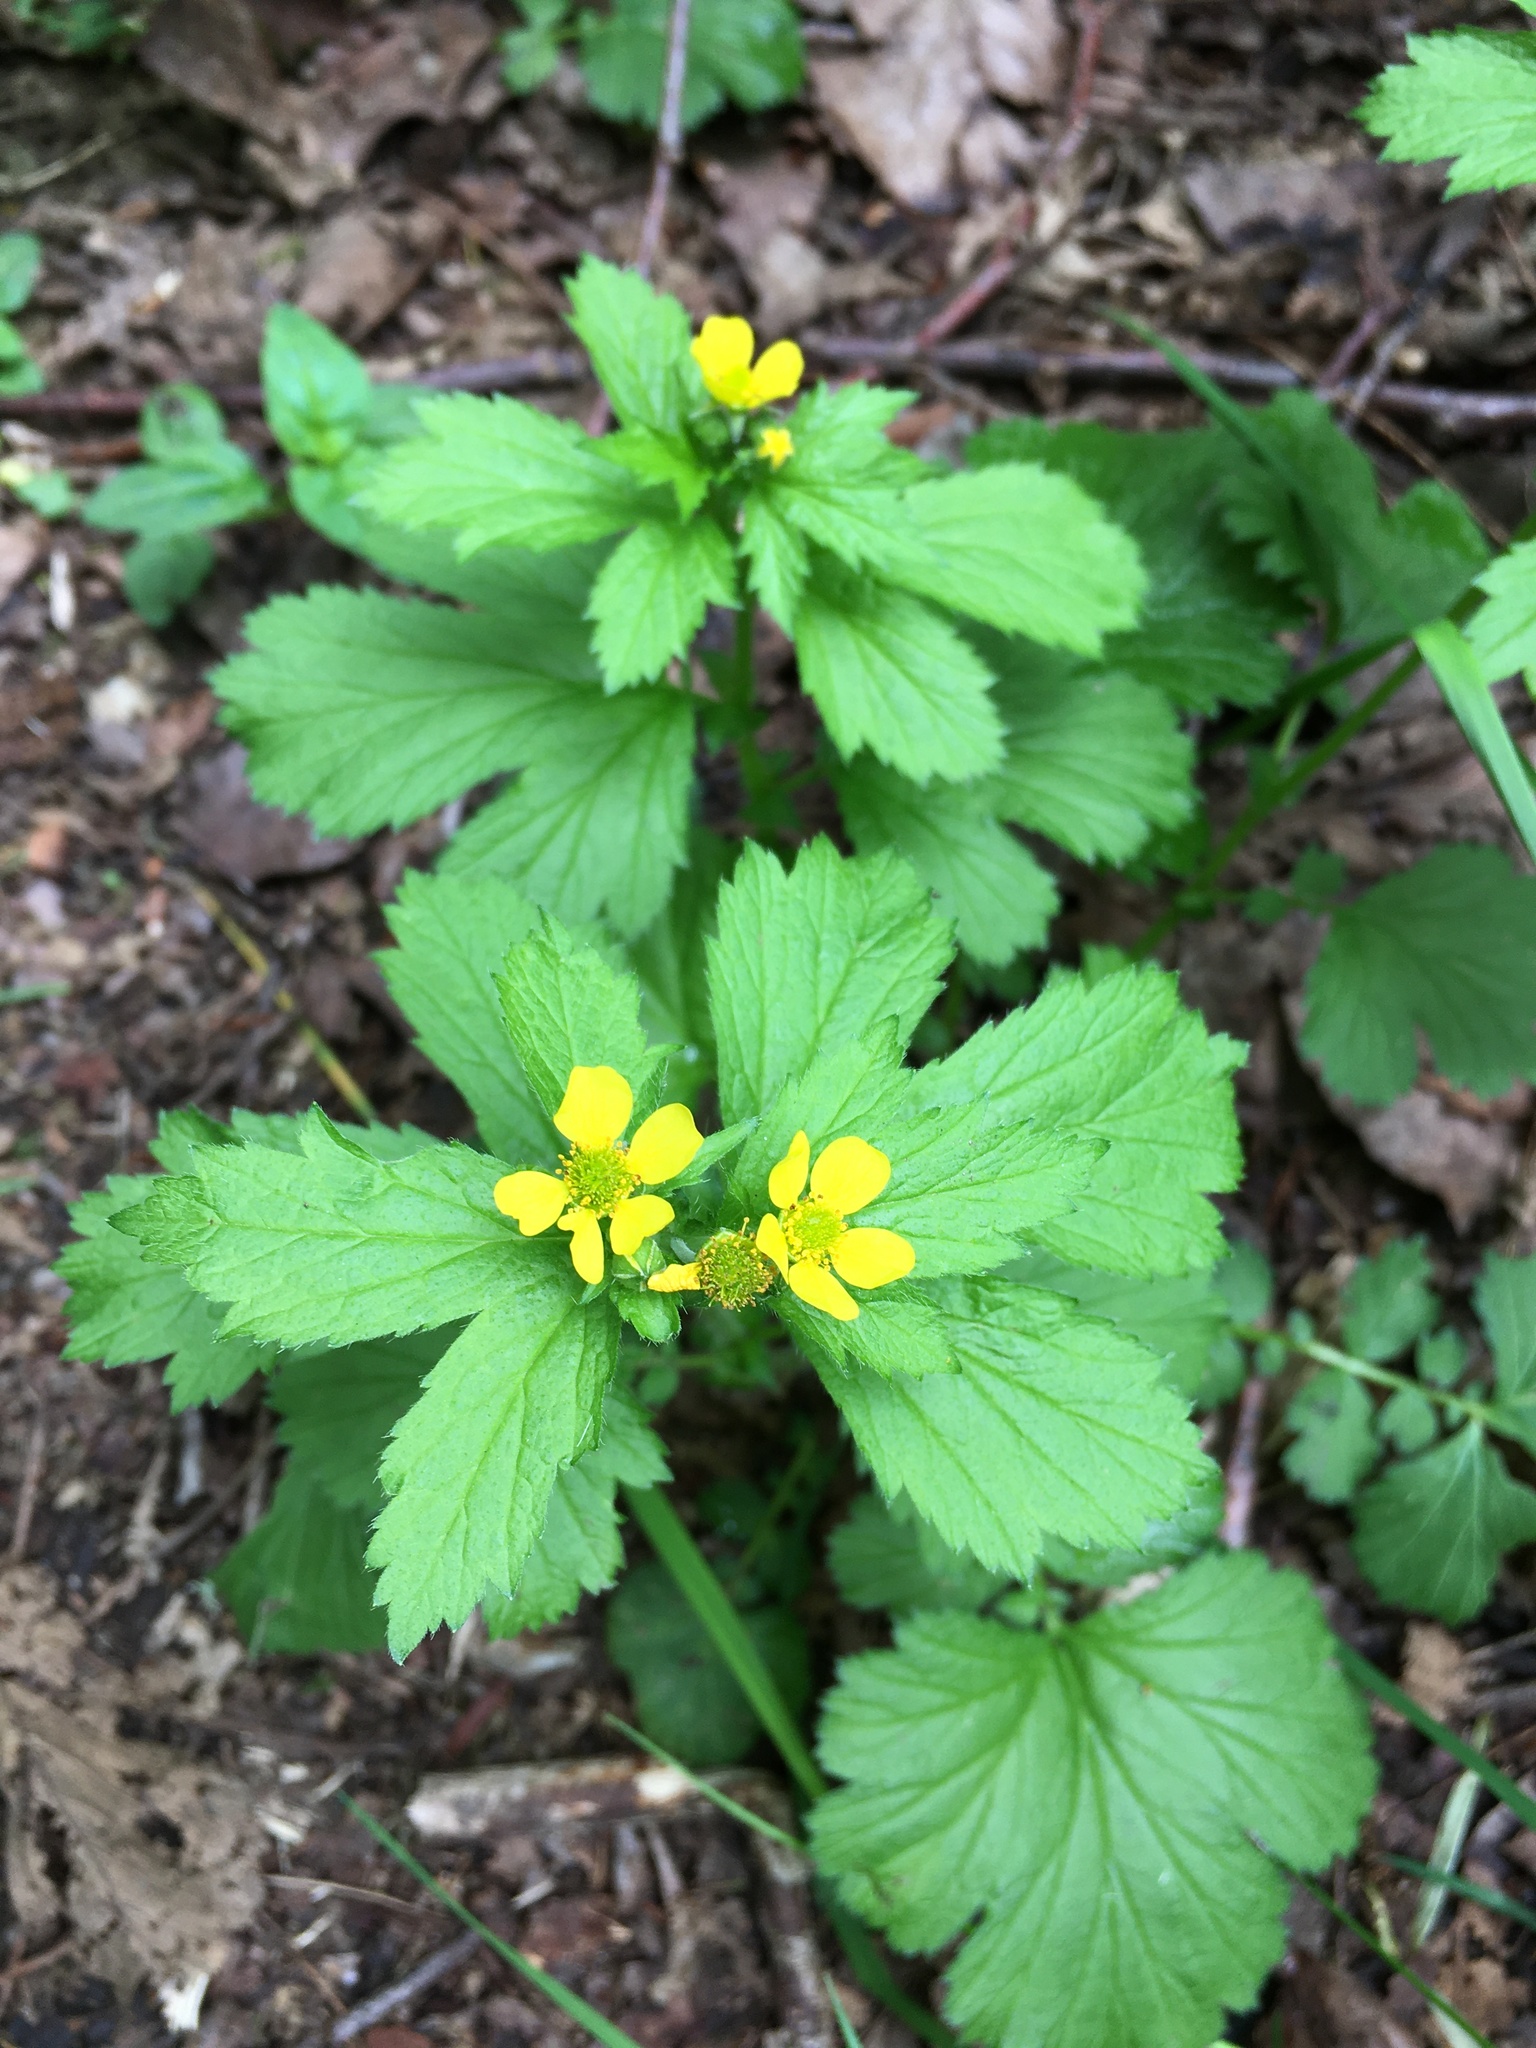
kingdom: Plantae
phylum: Tracheophyta
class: Magnoliopsida
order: Rosales
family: Rosaceae
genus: Geum
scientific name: Geum macrophyllum
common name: Large-leaved avens
